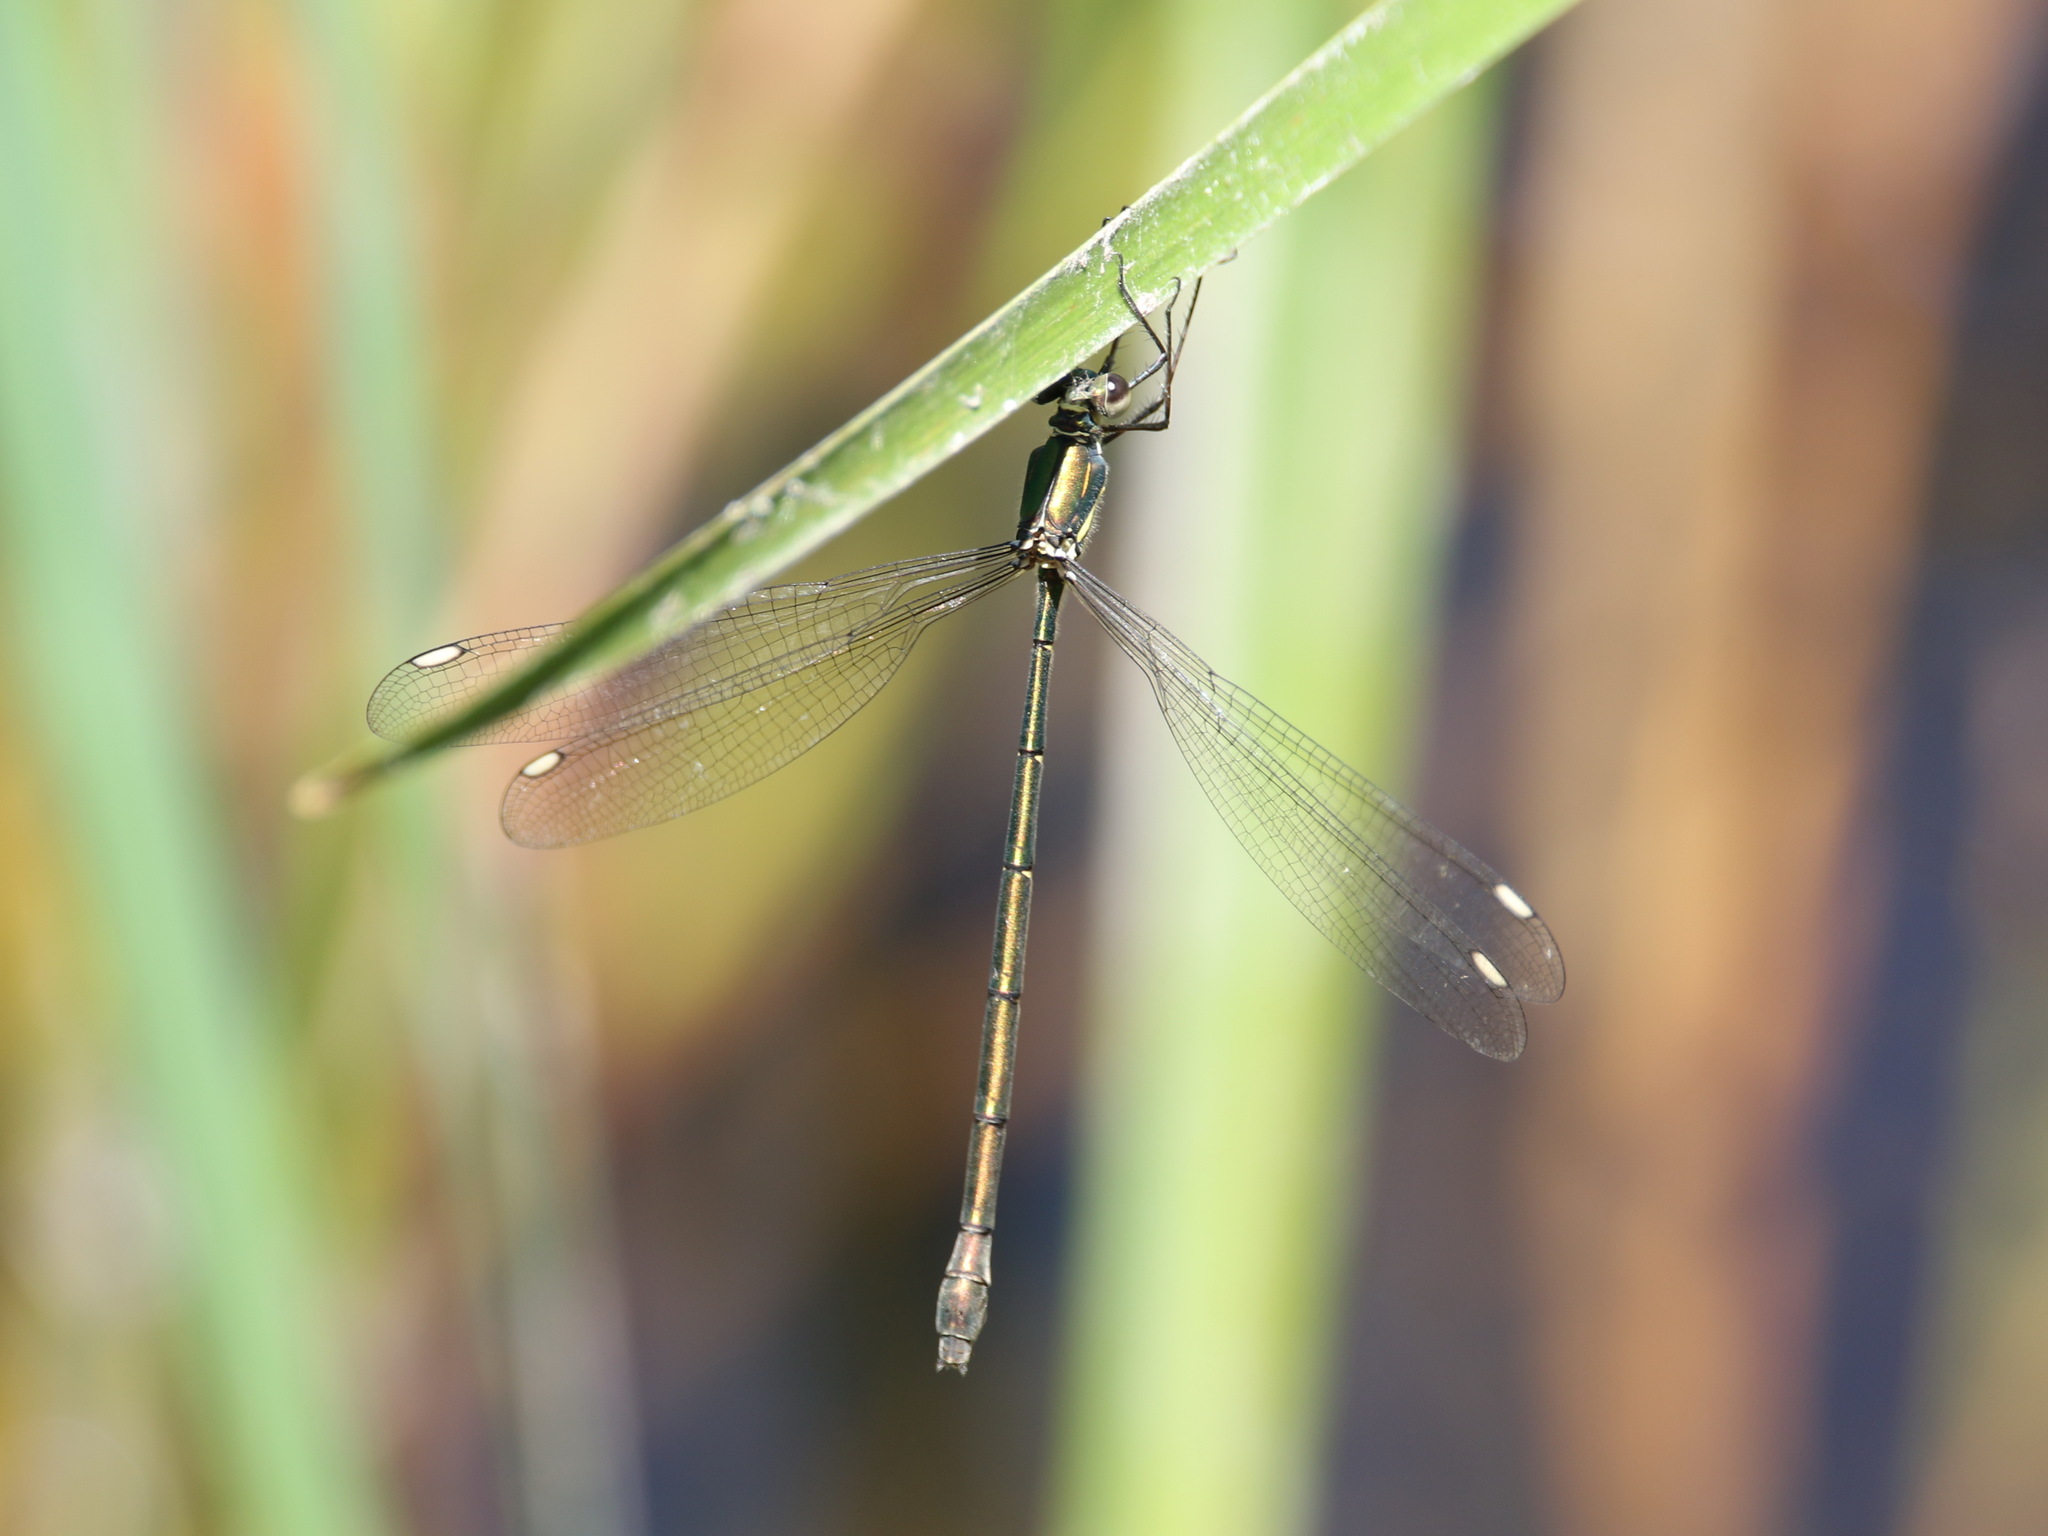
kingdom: Animalia
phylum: Arthropoda
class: Insecta
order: Odonata
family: Synlestidae
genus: Synlestes
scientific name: Synlestes weyersii
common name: Bronze needle
